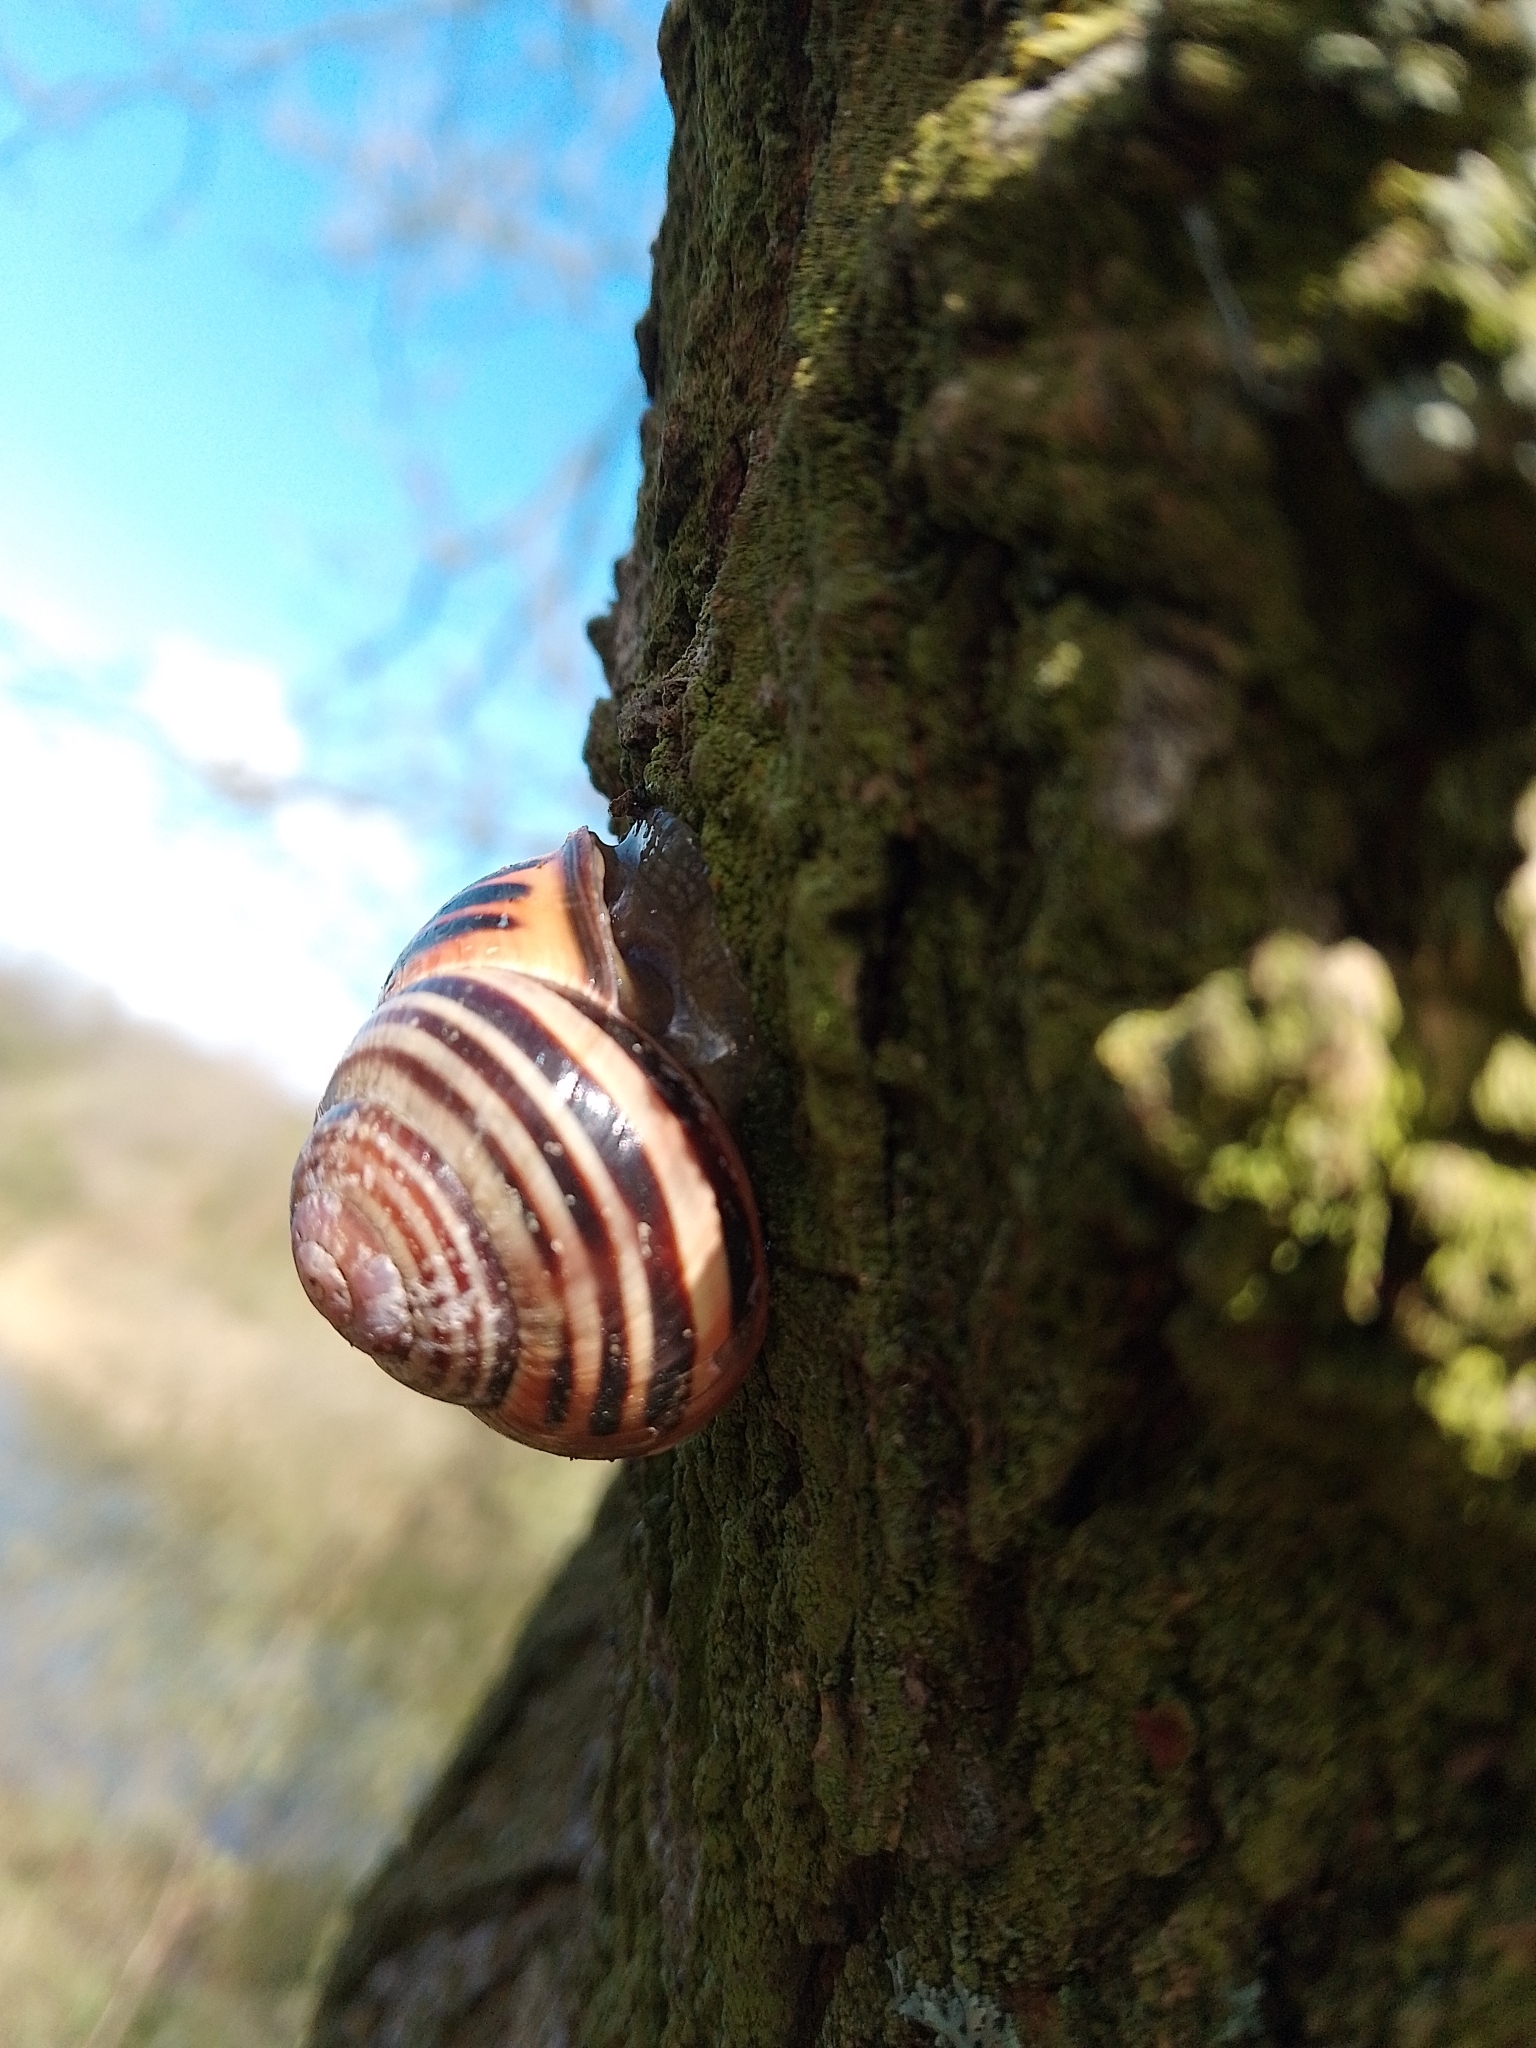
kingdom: Animalia
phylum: Mollusca
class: Gastropoda
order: Stylommatophora
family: Helicidae
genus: Cepaea
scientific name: Cepaea nemoralis
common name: Grovesnail
